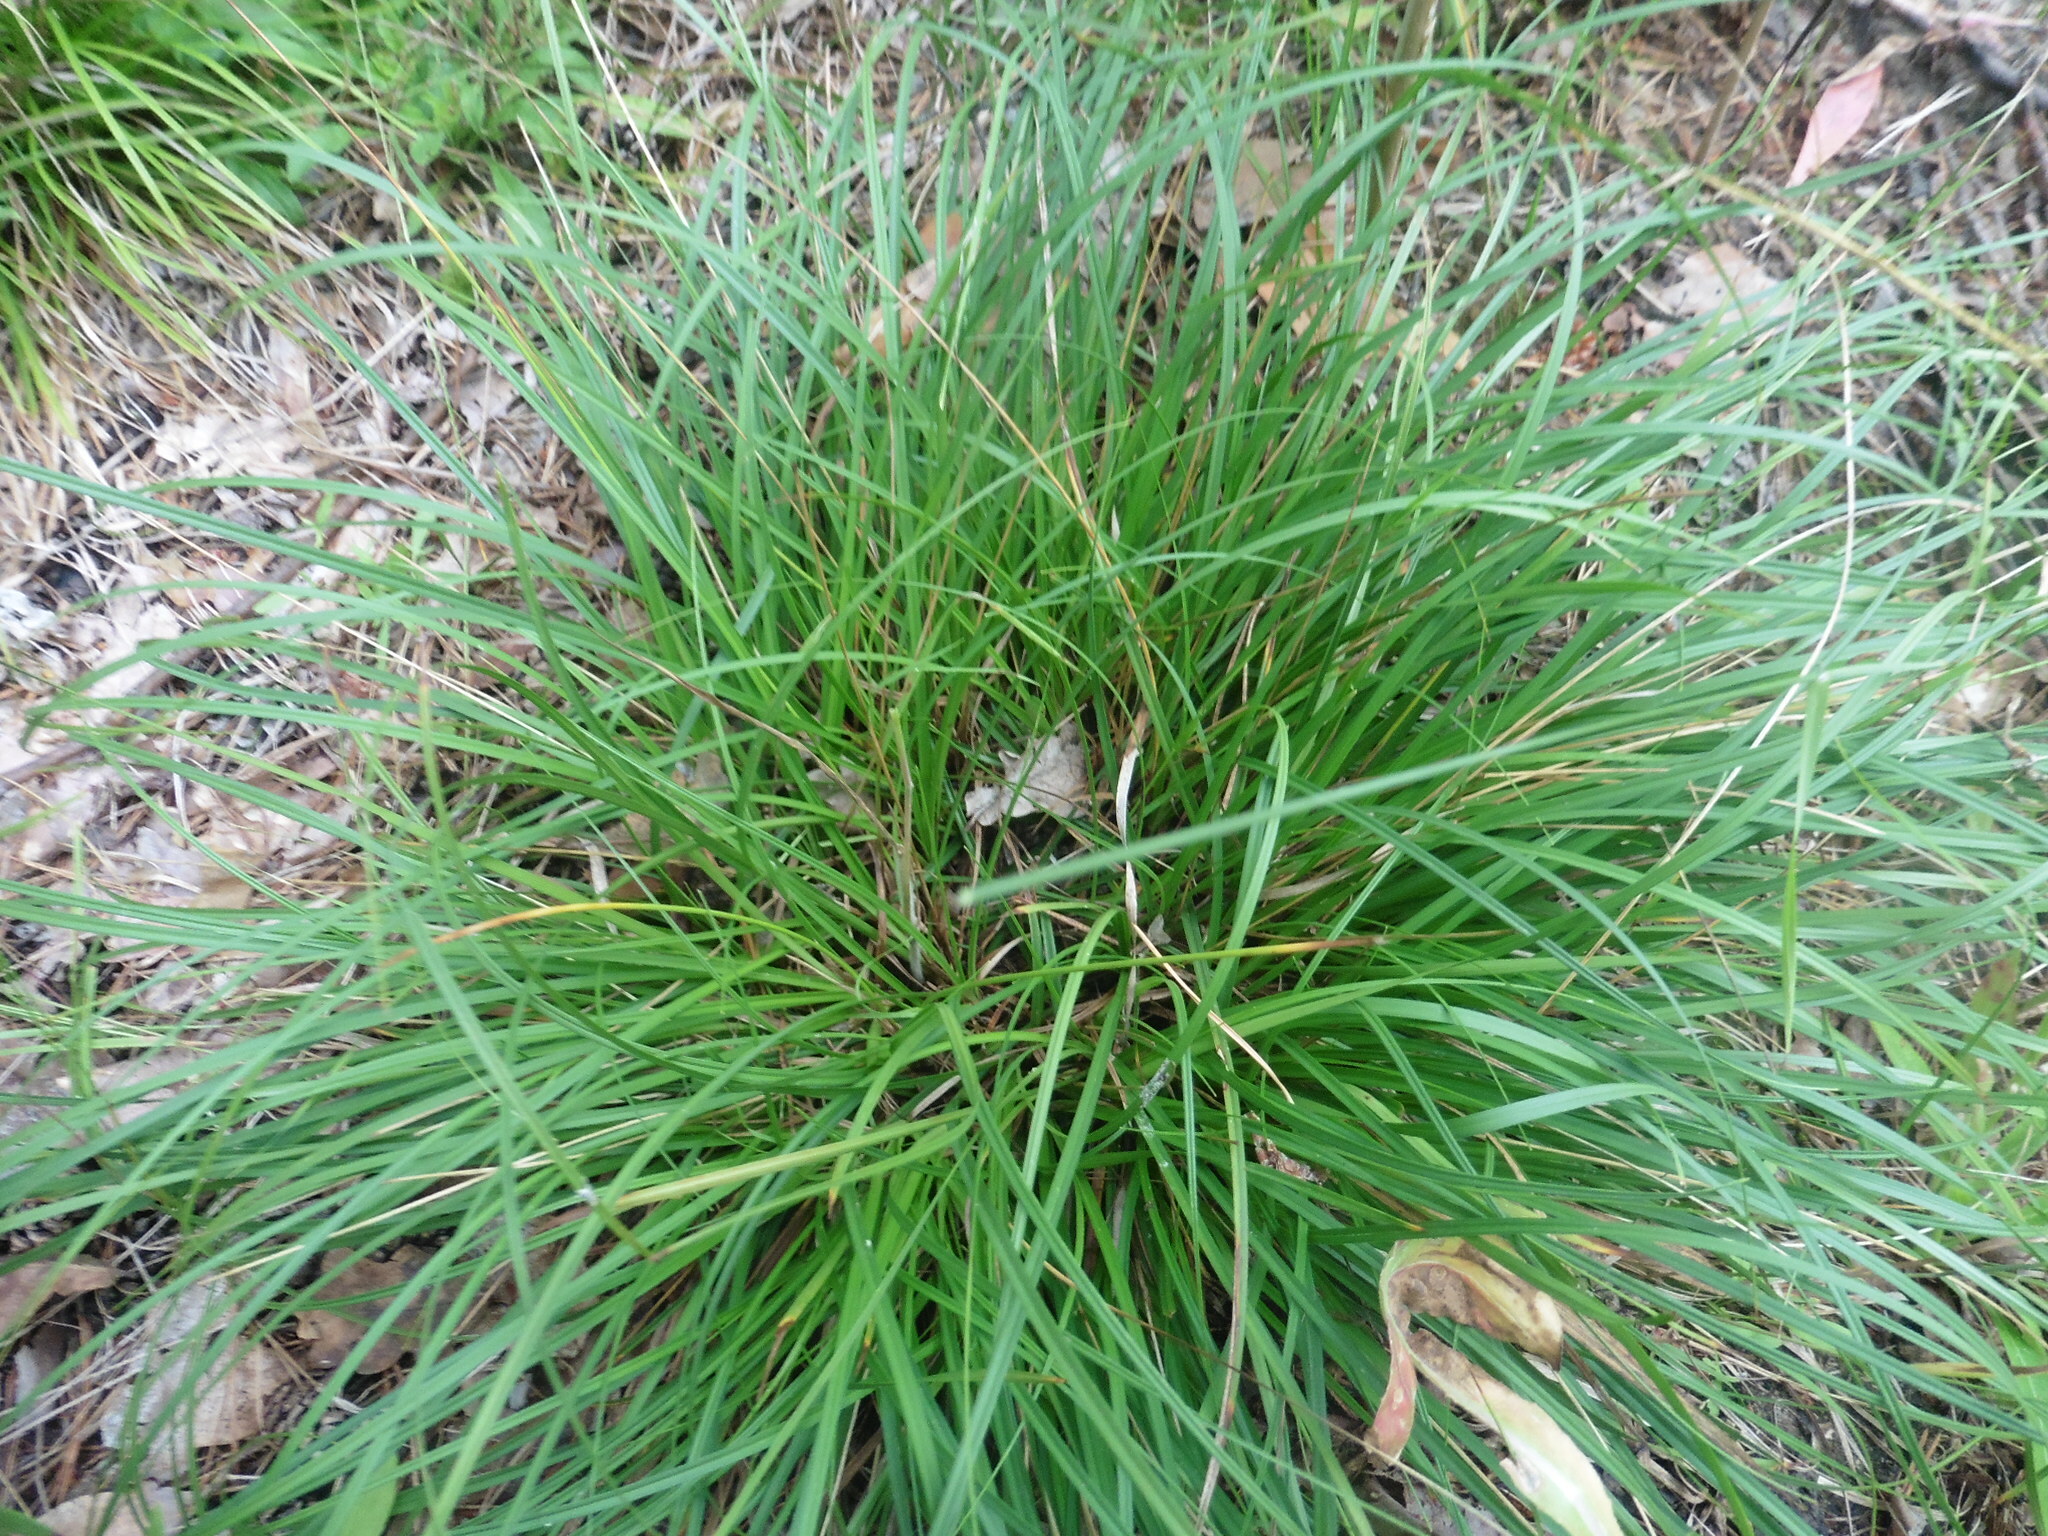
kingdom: Plantae
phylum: Tracheophyta
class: Liliopsida
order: Poales
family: Cyperaceae
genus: Carex
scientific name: Carex digitata
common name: Fingered sedge
